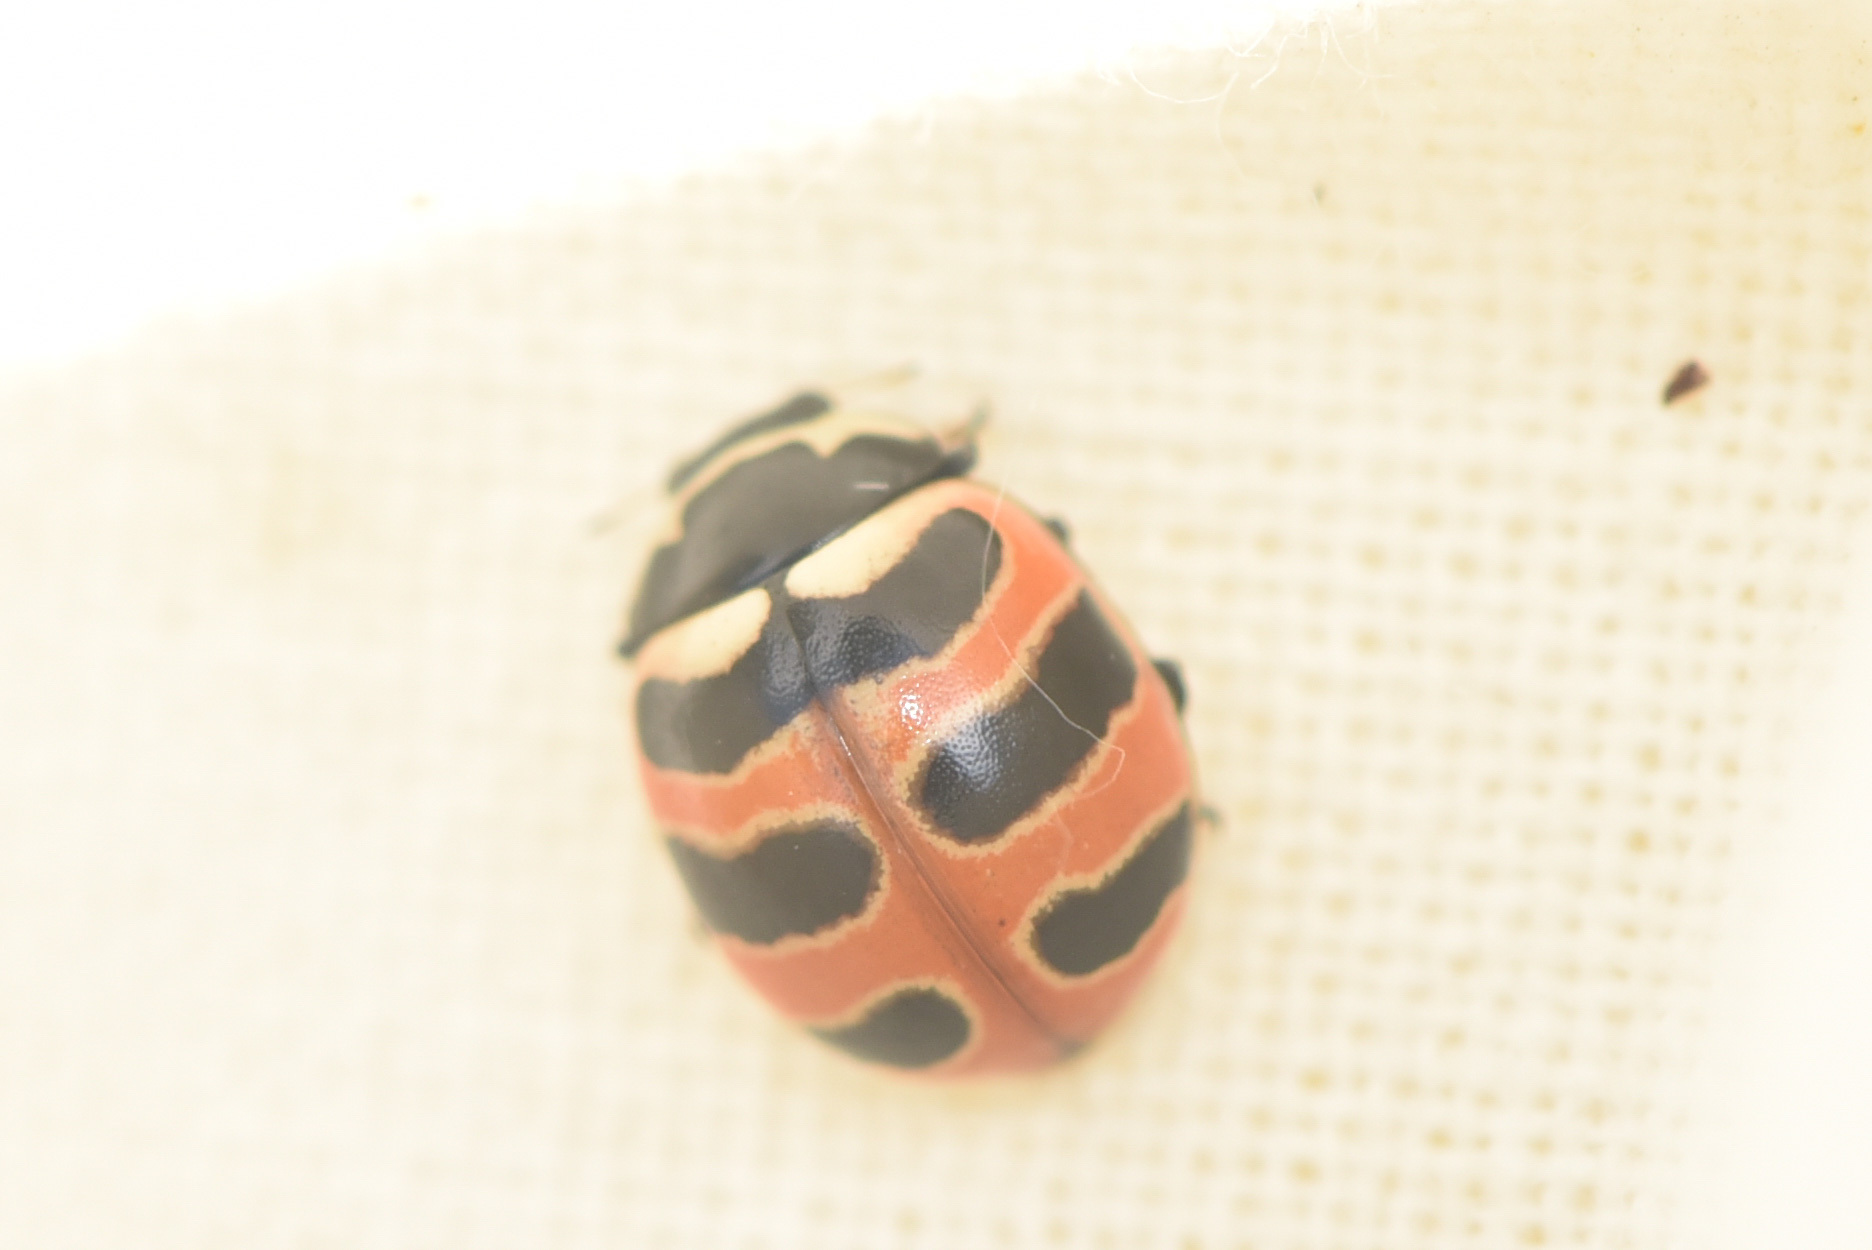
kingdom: Animalia
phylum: Arthropoda
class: Insecta
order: Coleoptera
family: Coccinellidae
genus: Coccinella
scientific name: Coccinella trifasciata
